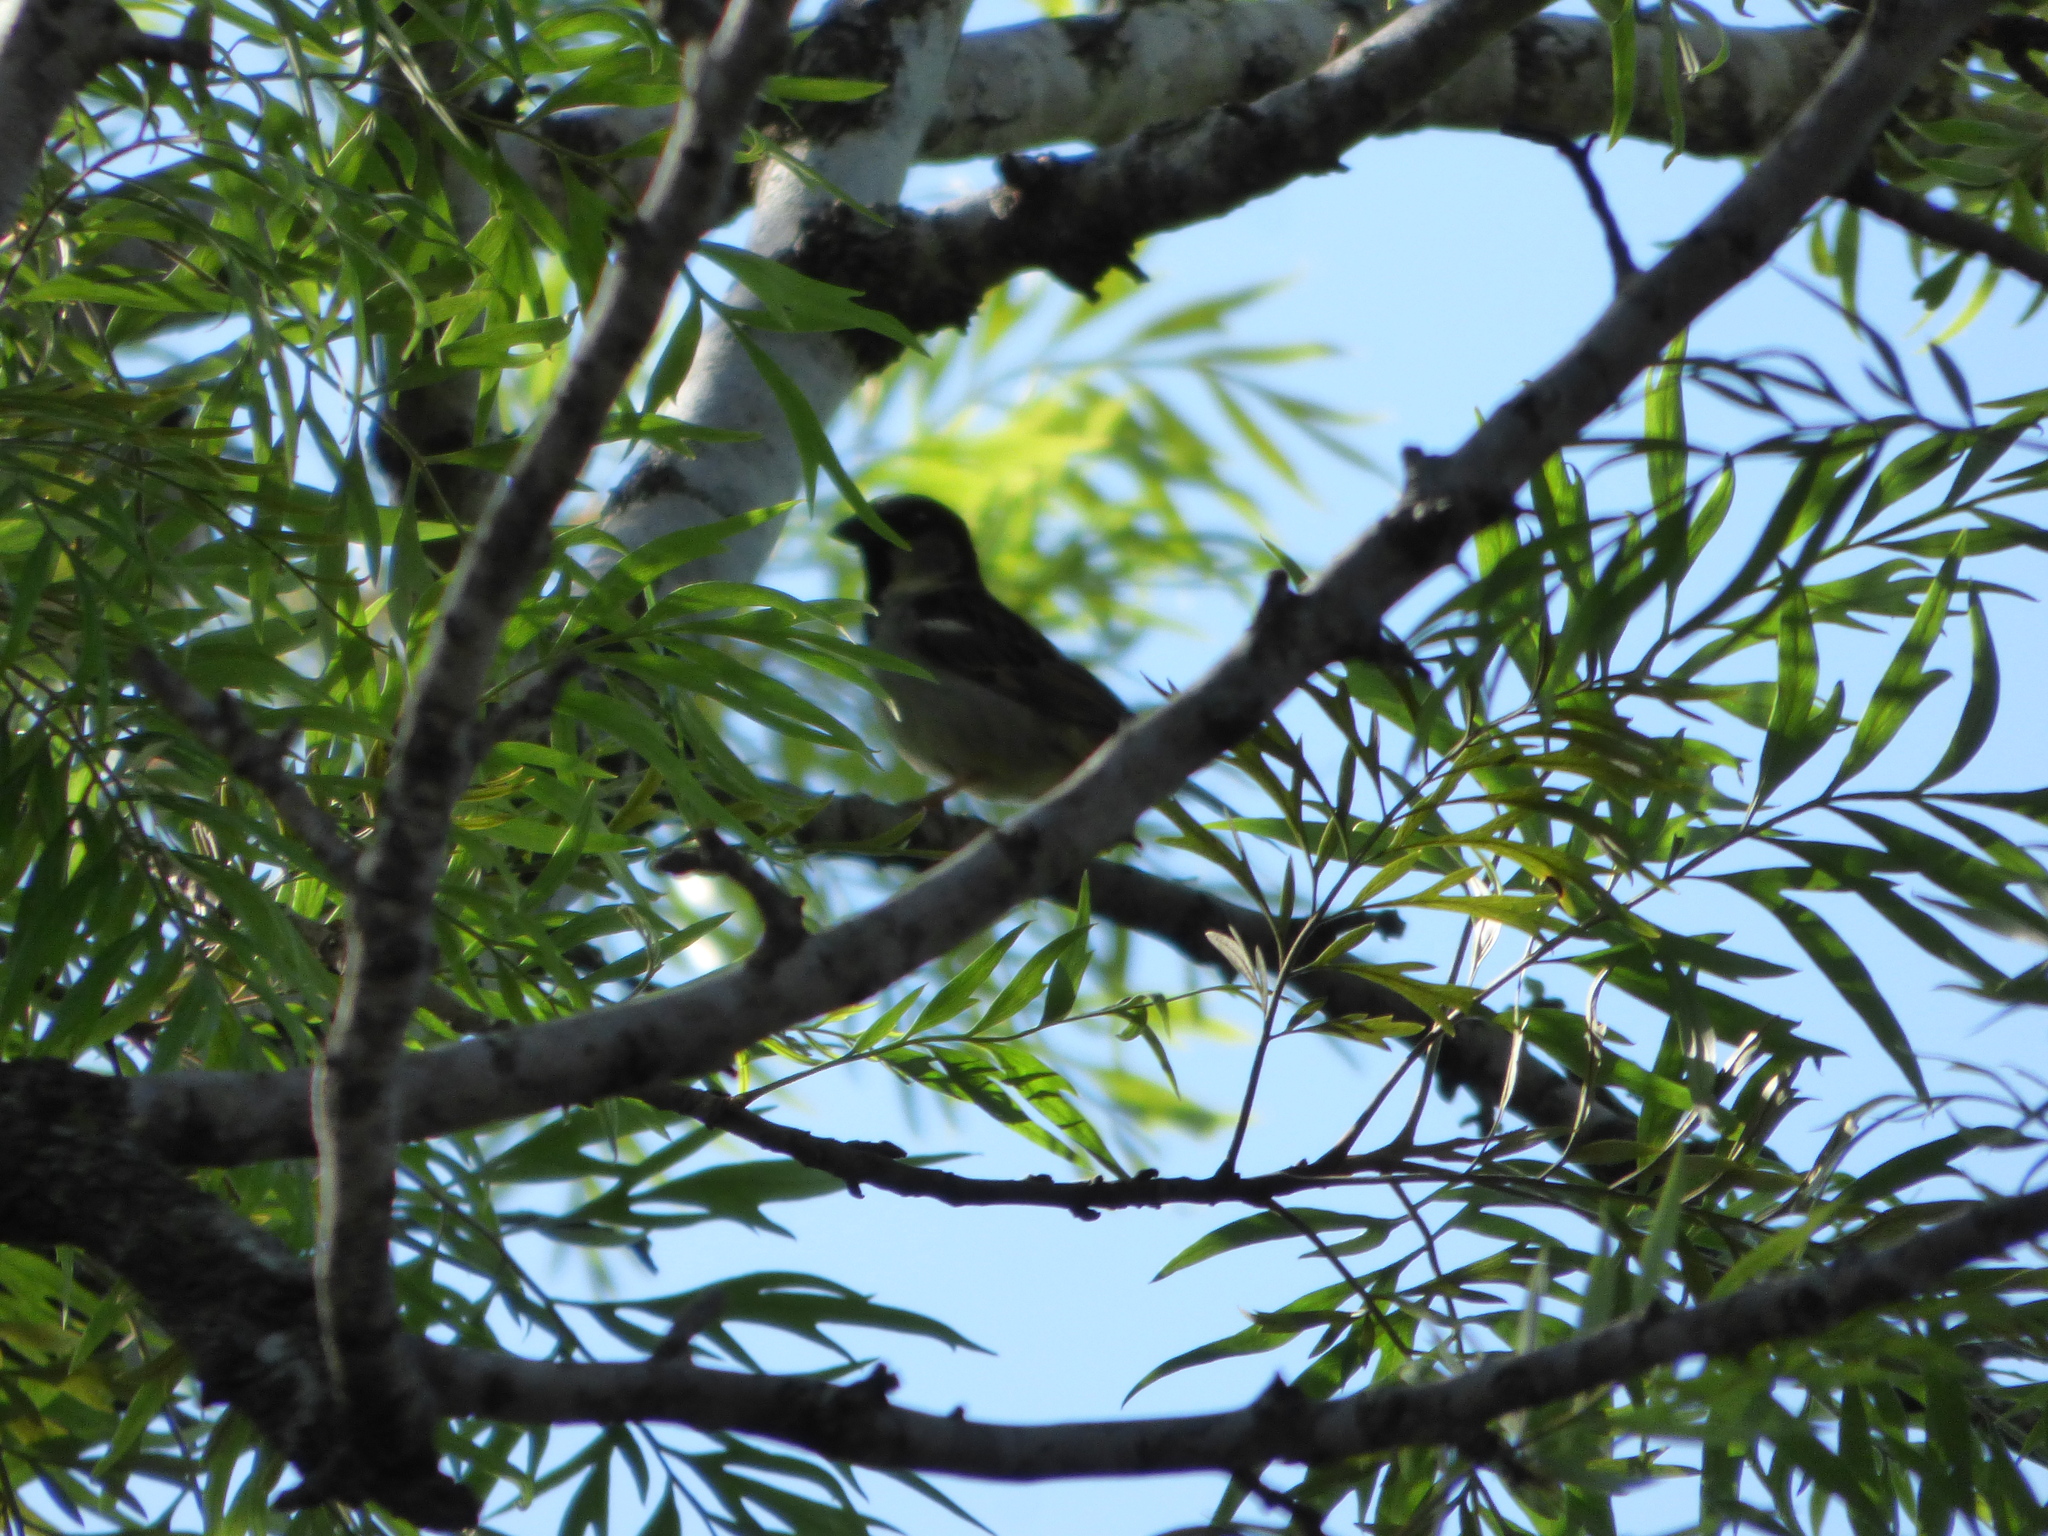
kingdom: Animalia
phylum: Chordata
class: Aves
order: Passeriformes
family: Passeridae
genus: Passer
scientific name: Passer domesticus
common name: House sparrow
